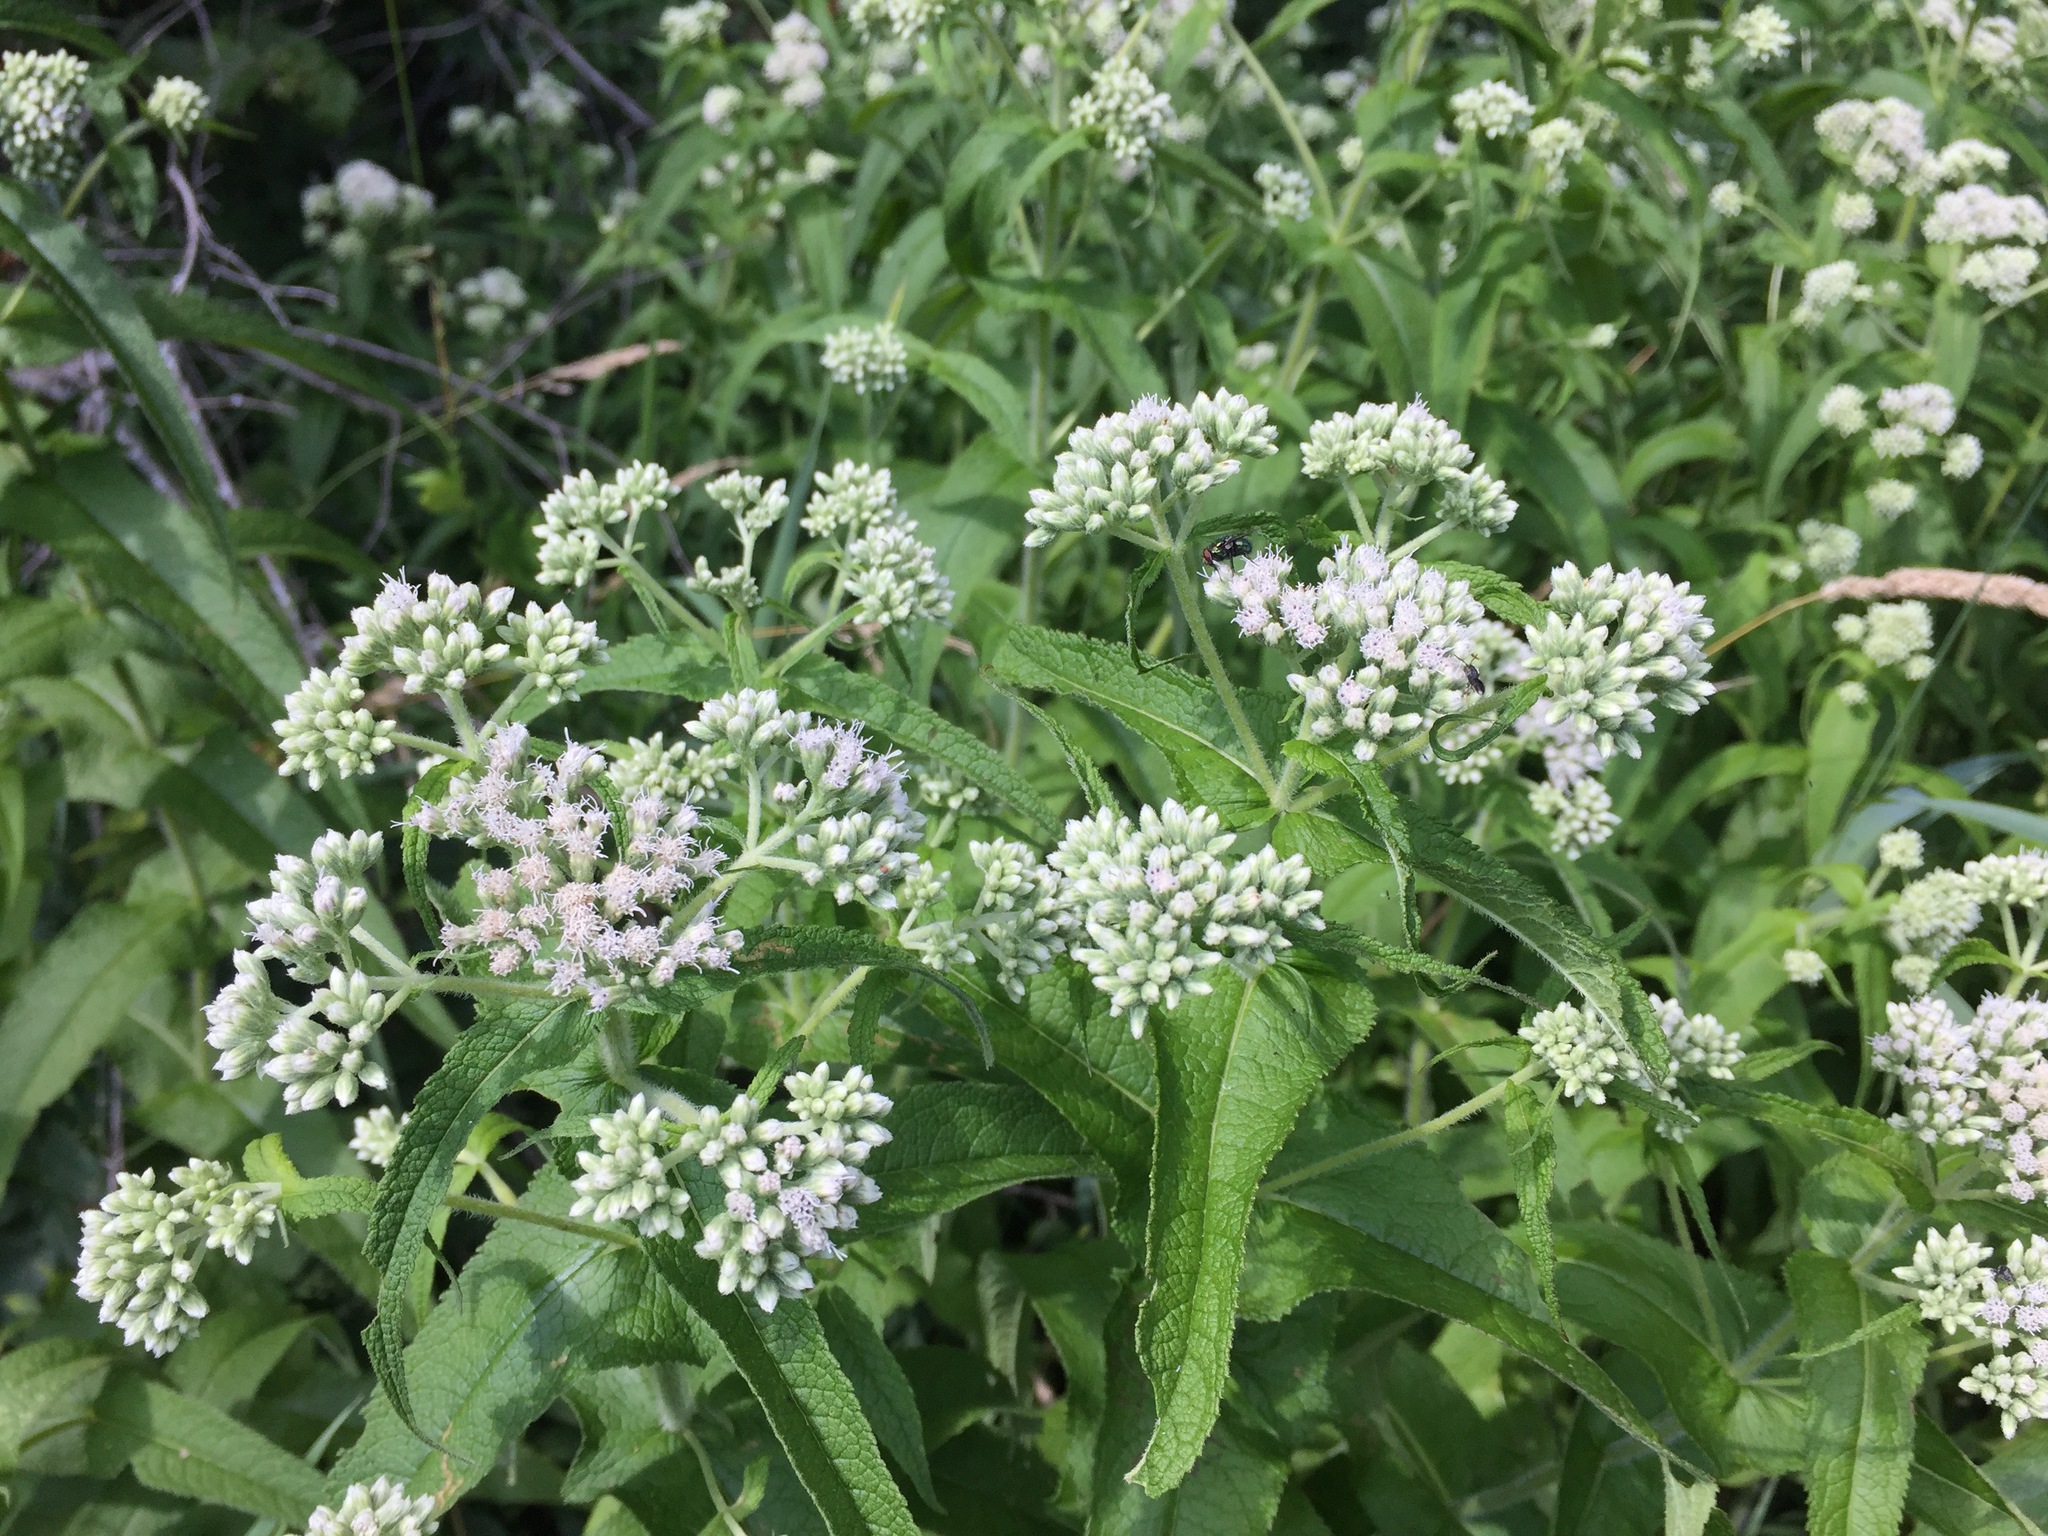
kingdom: Plantae
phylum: Tracheophyta
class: Magnoliopsida
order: Asterales
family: Asteraceae
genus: Eupatorium
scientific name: Eupatorium perfoliatum
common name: Boneset
